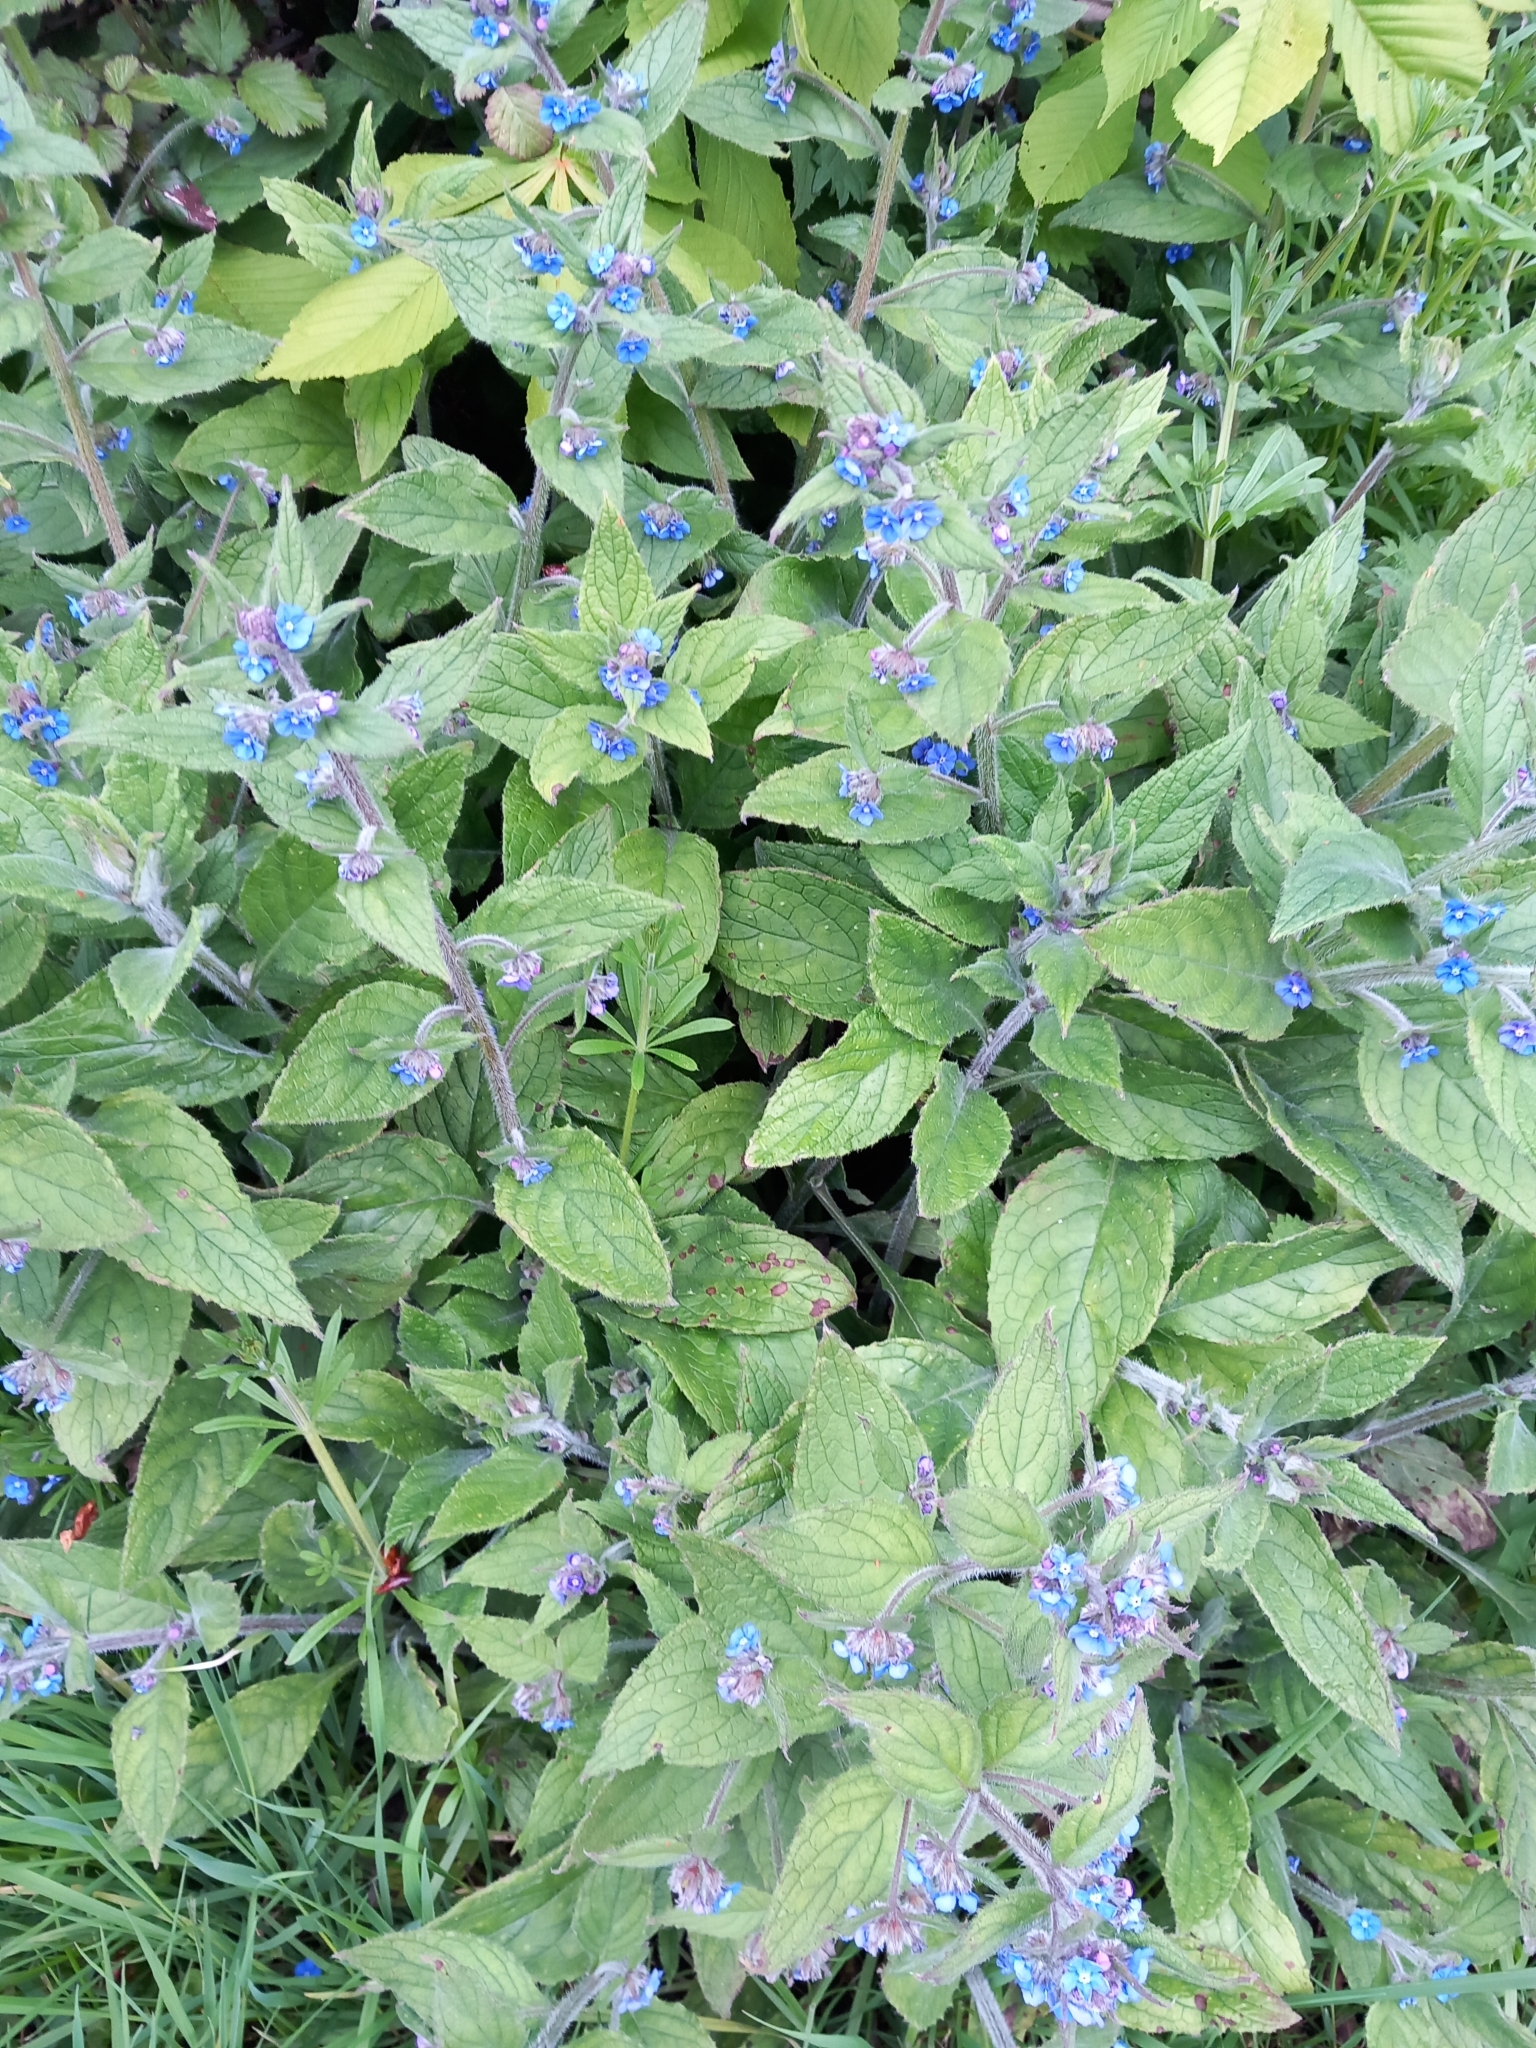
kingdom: Plantae
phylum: Tracheophyta
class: Magnoliopsida
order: Boraginales
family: Boraginaceae
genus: Pentaglottis
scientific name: Pentaglottis sempervirens
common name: Green alkanet
